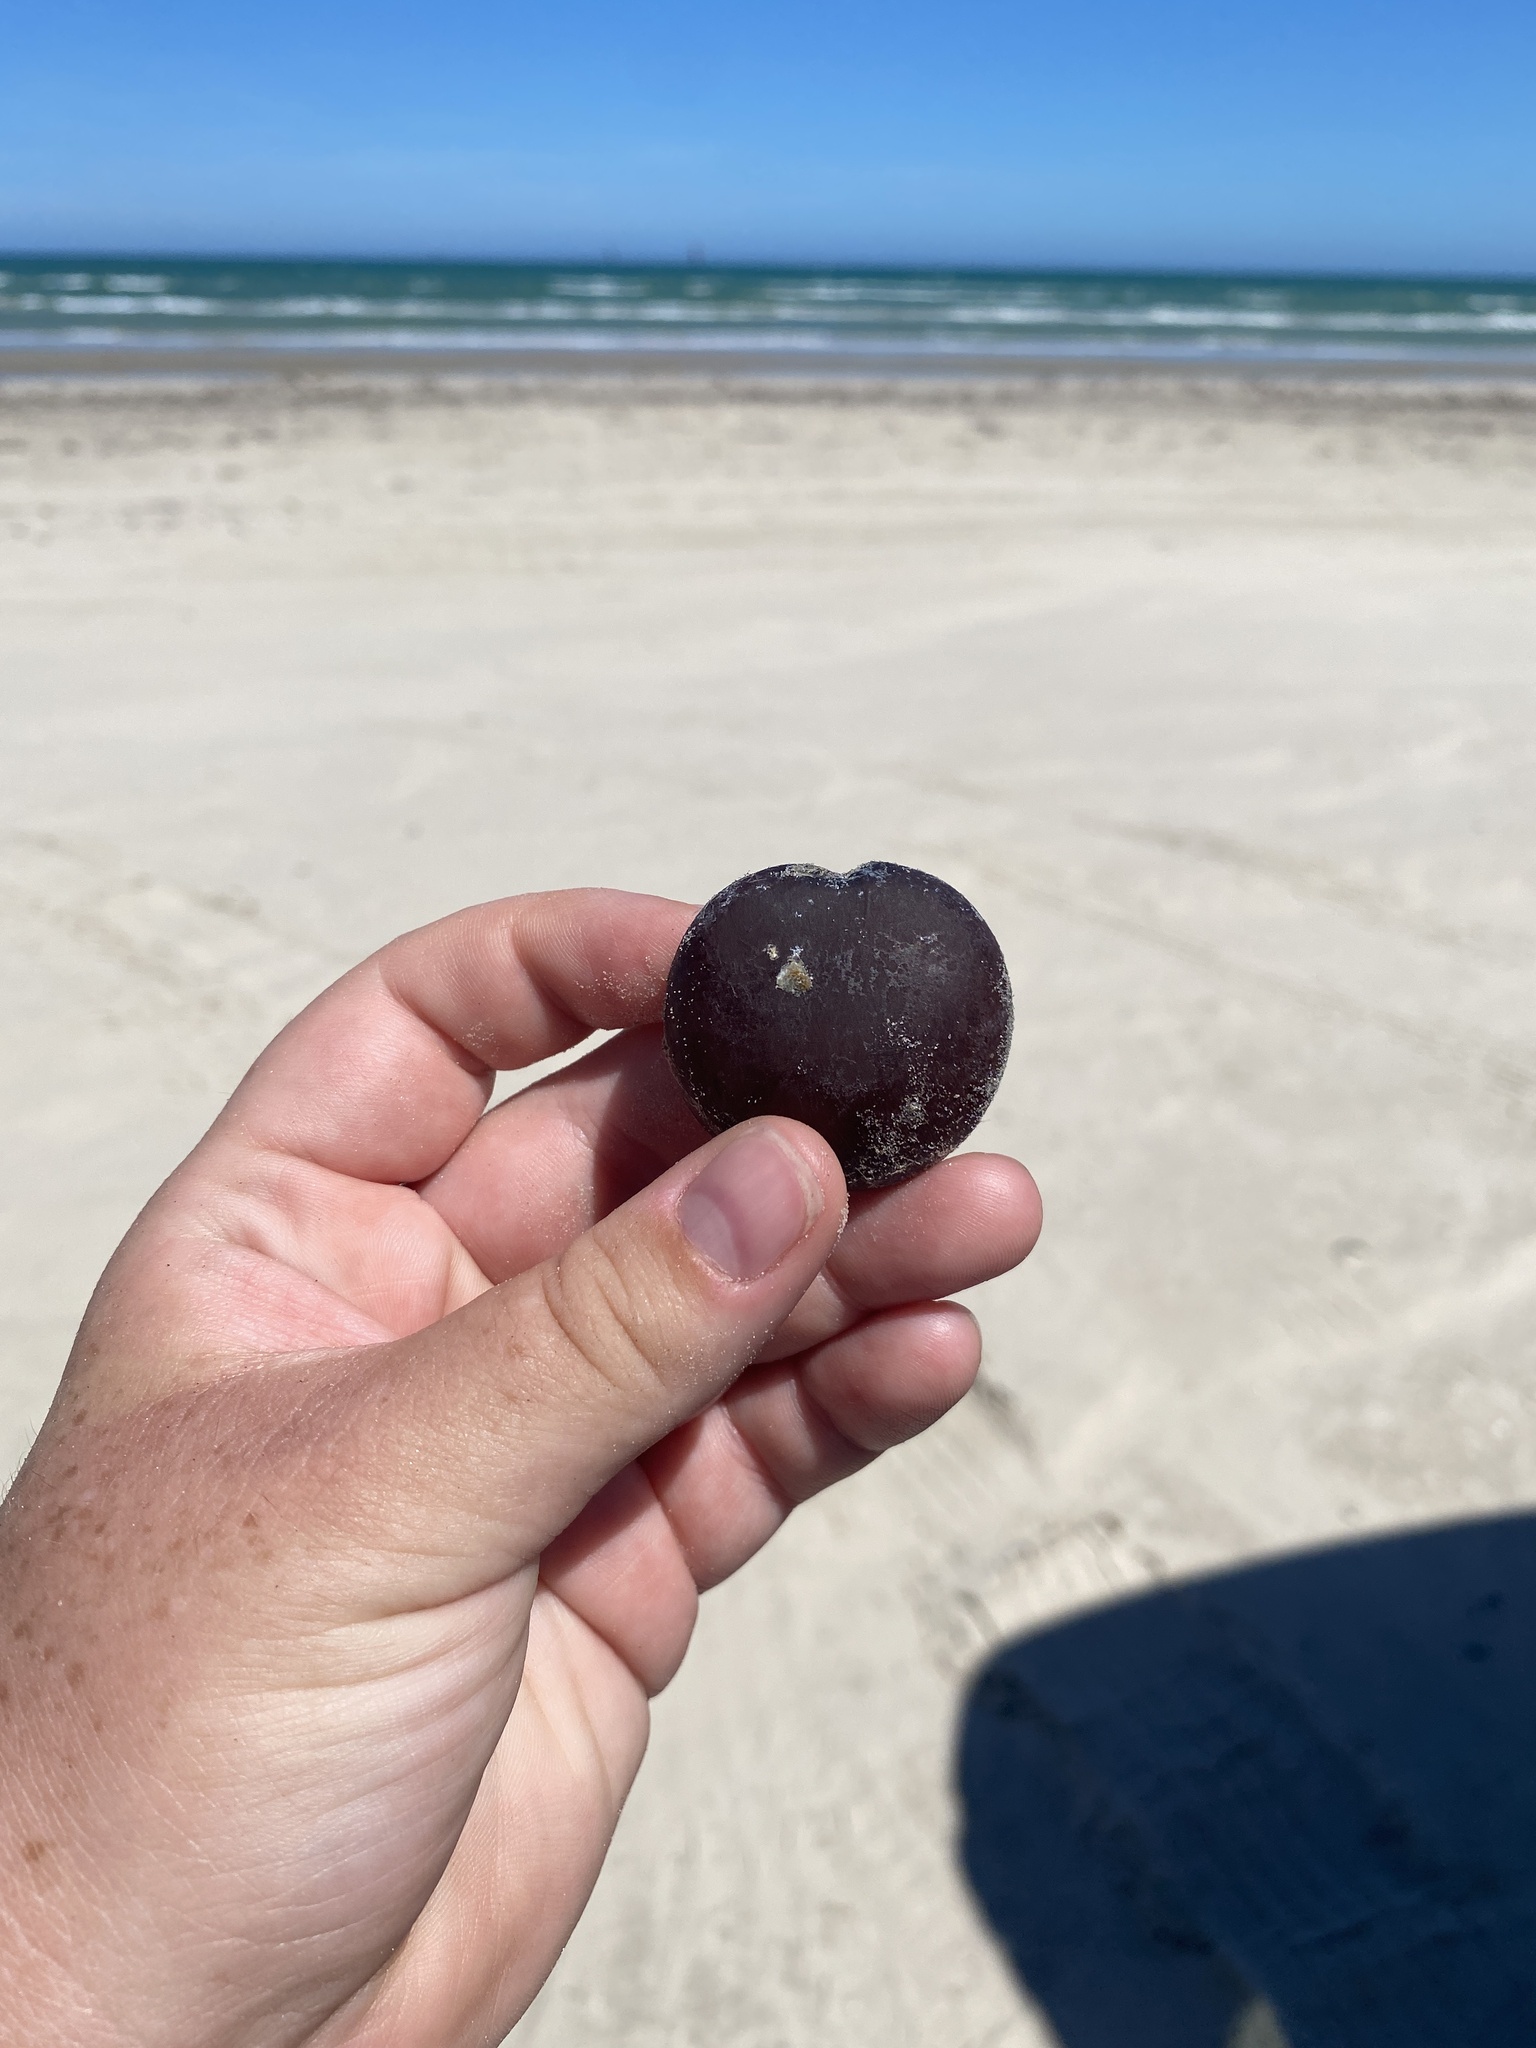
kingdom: Plantae
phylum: Tracheophyta
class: Magnoliopsida
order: Fabales
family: Fabaceae
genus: Entada
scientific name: Entada gigas
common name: Nicker-bean
